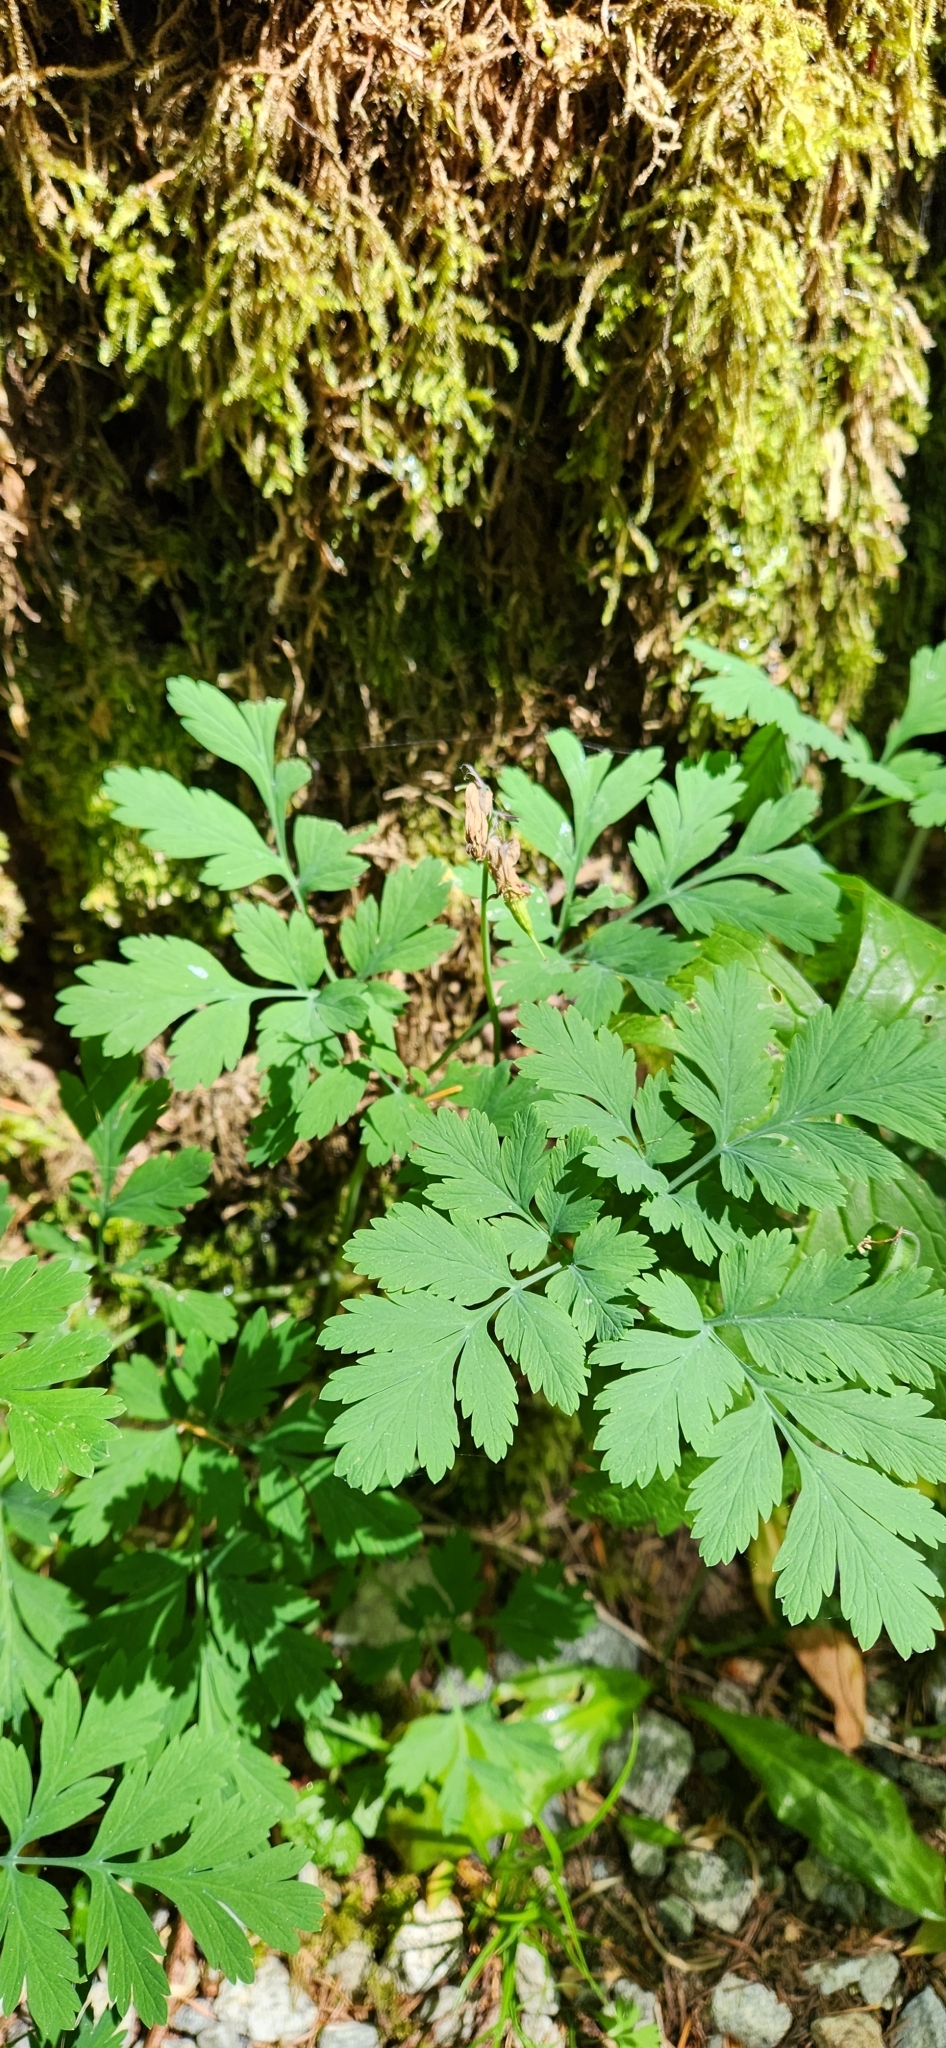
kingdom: Plantae
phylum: Tracheophyta
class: Magnoliopsida
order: Ranunculales
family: Papaveraceae
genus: Dicentra
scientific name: Dicentra formosa
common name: Bleeding-heart
